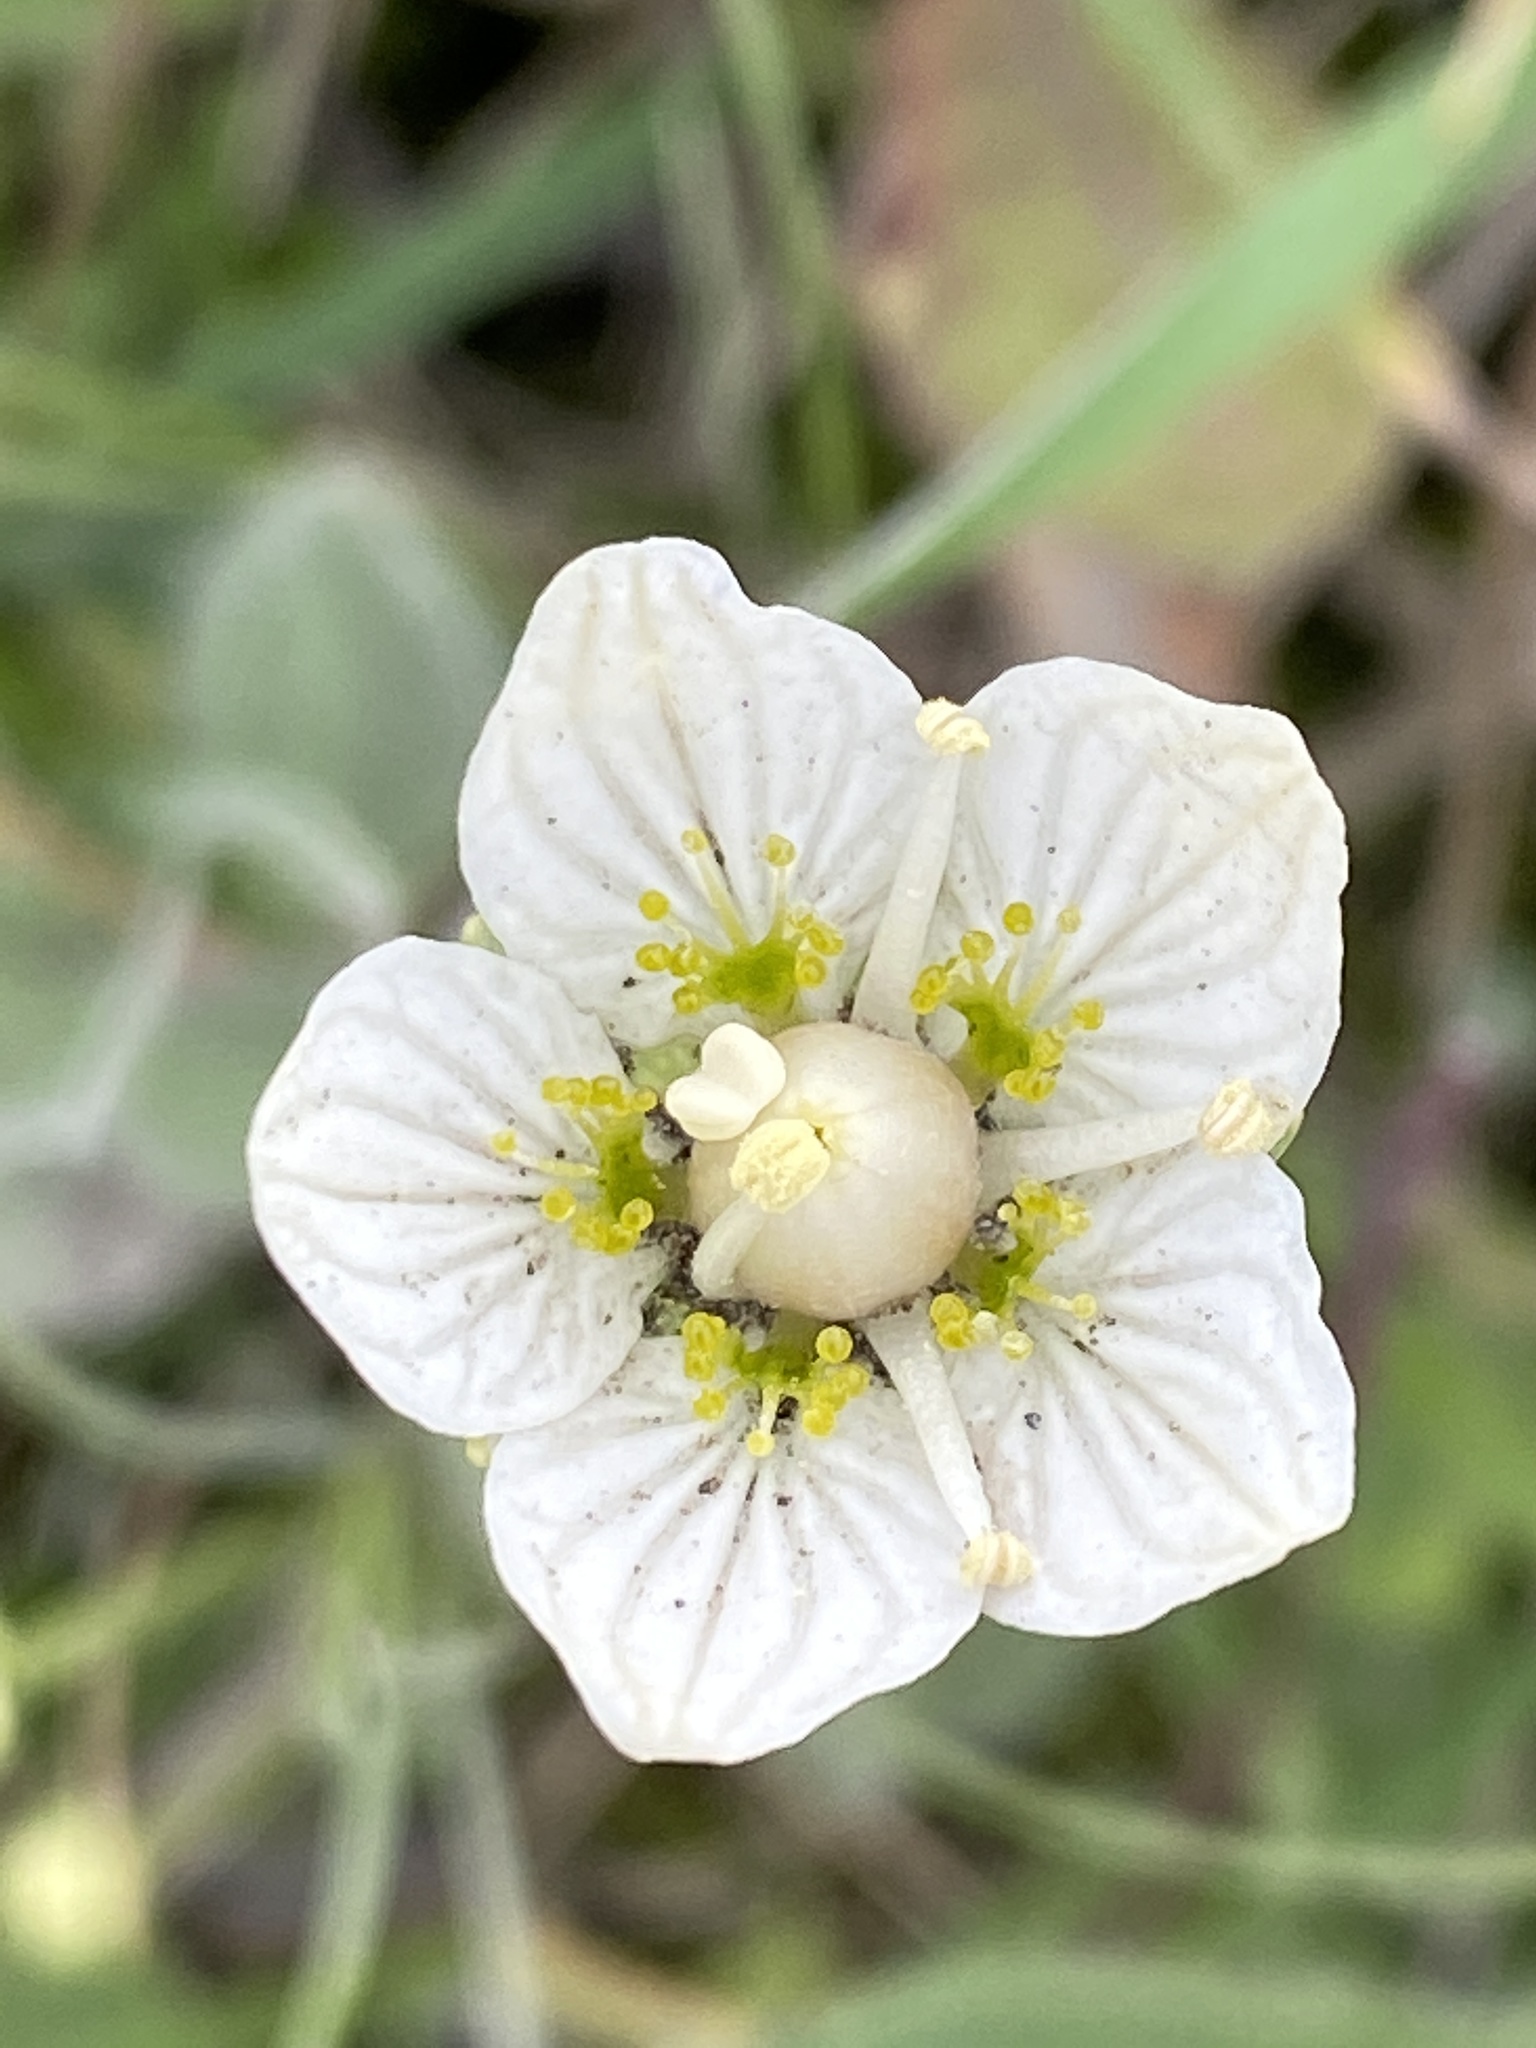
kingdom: Plantae
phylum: Tracheophyta
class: Magnoliopsida
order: Celastrales
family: Parnassiaceae
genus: Parnassia
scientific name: Parnassia palustris
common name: Grass-of-parnassus
